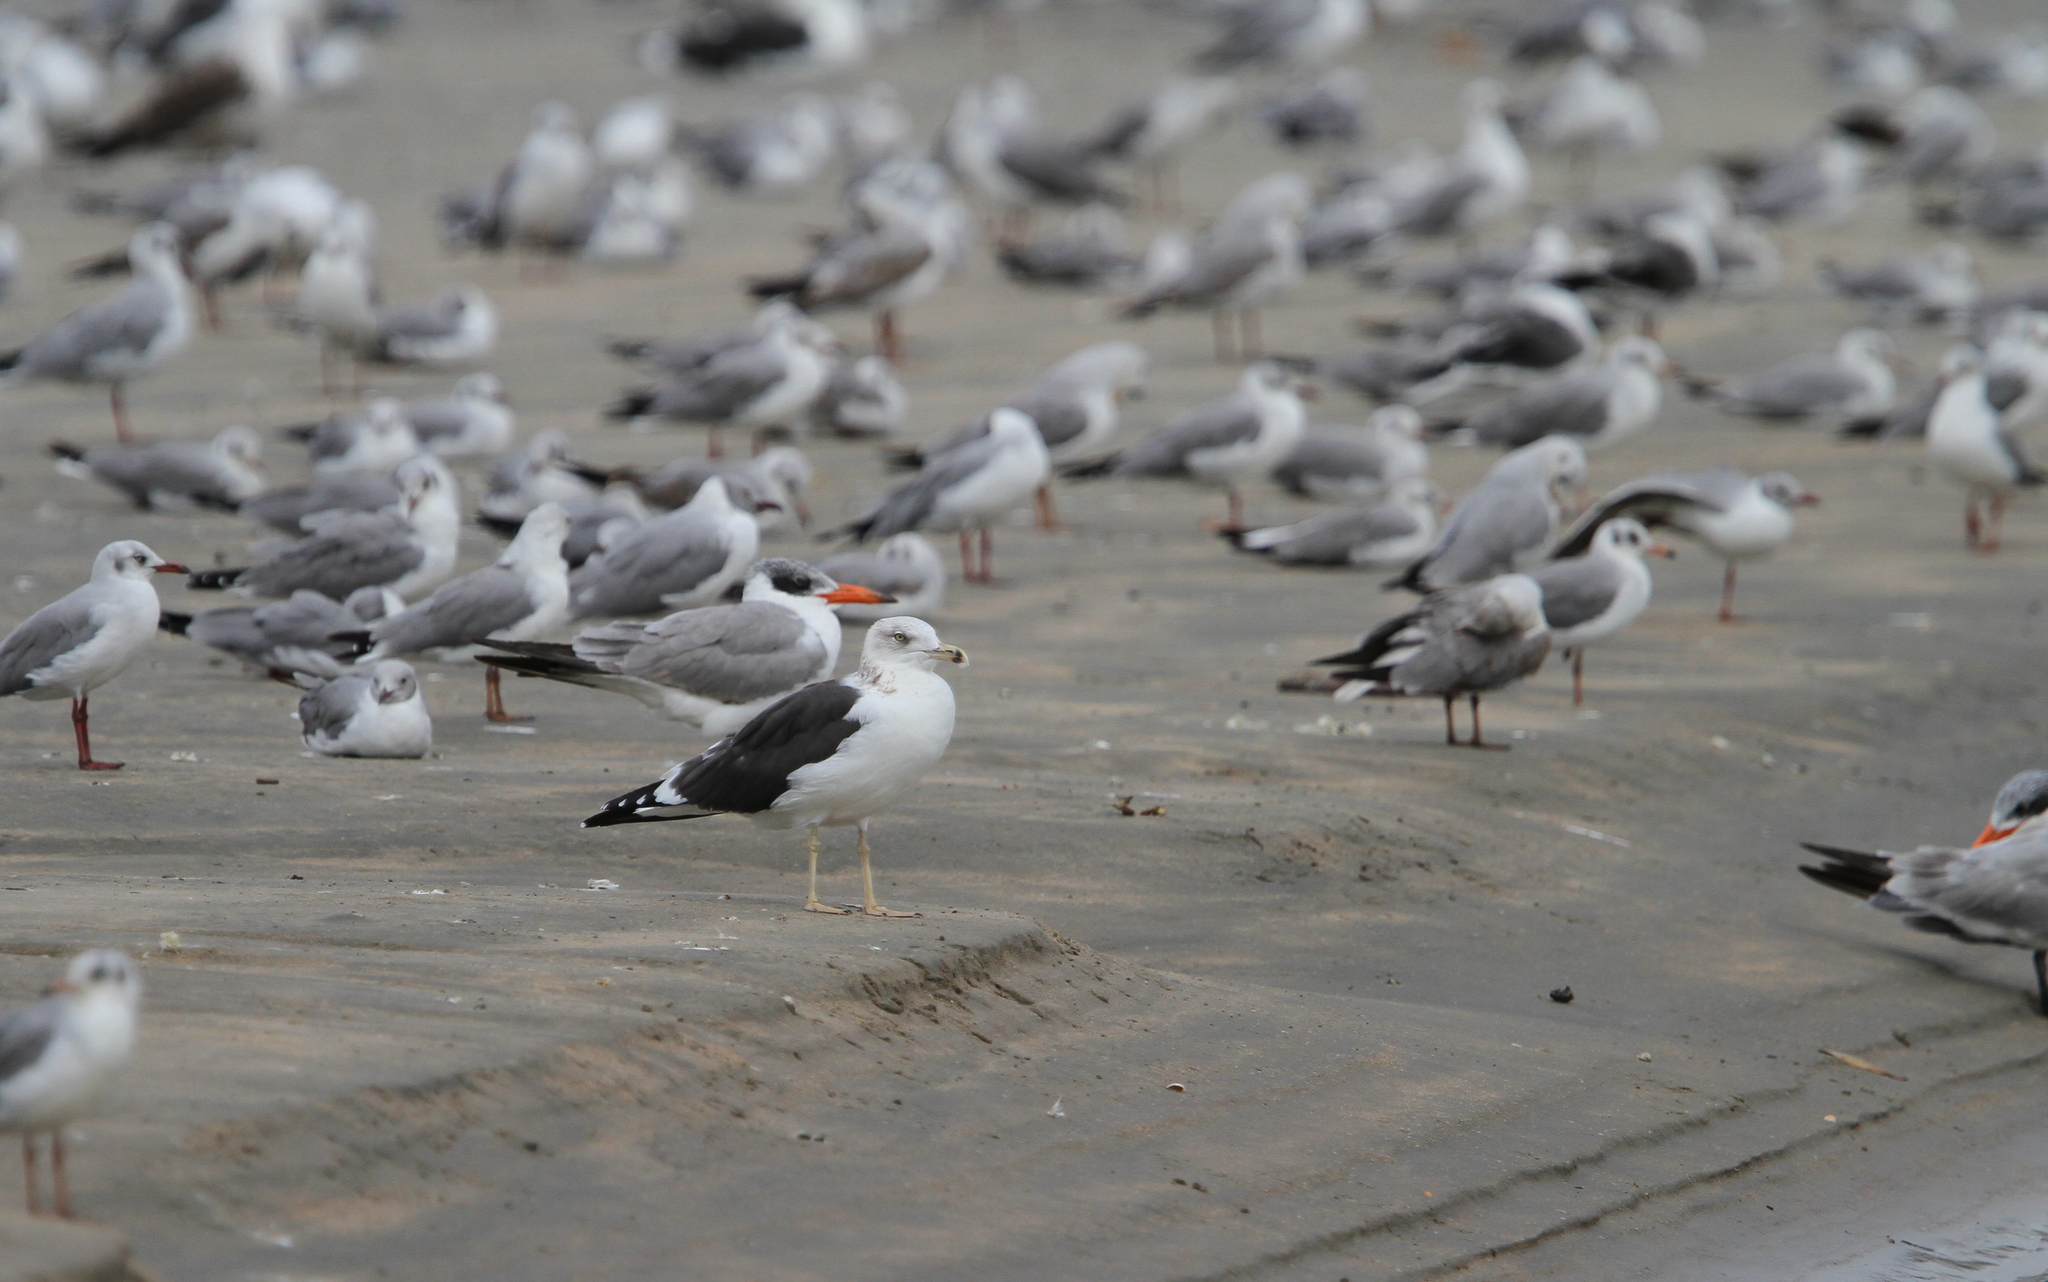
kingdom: Animalia
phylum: Chordata
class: Aves
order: Charadriiformes
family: Laridae
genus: Larus
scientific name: Larus fuscus
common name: Lesser black-backed gull
